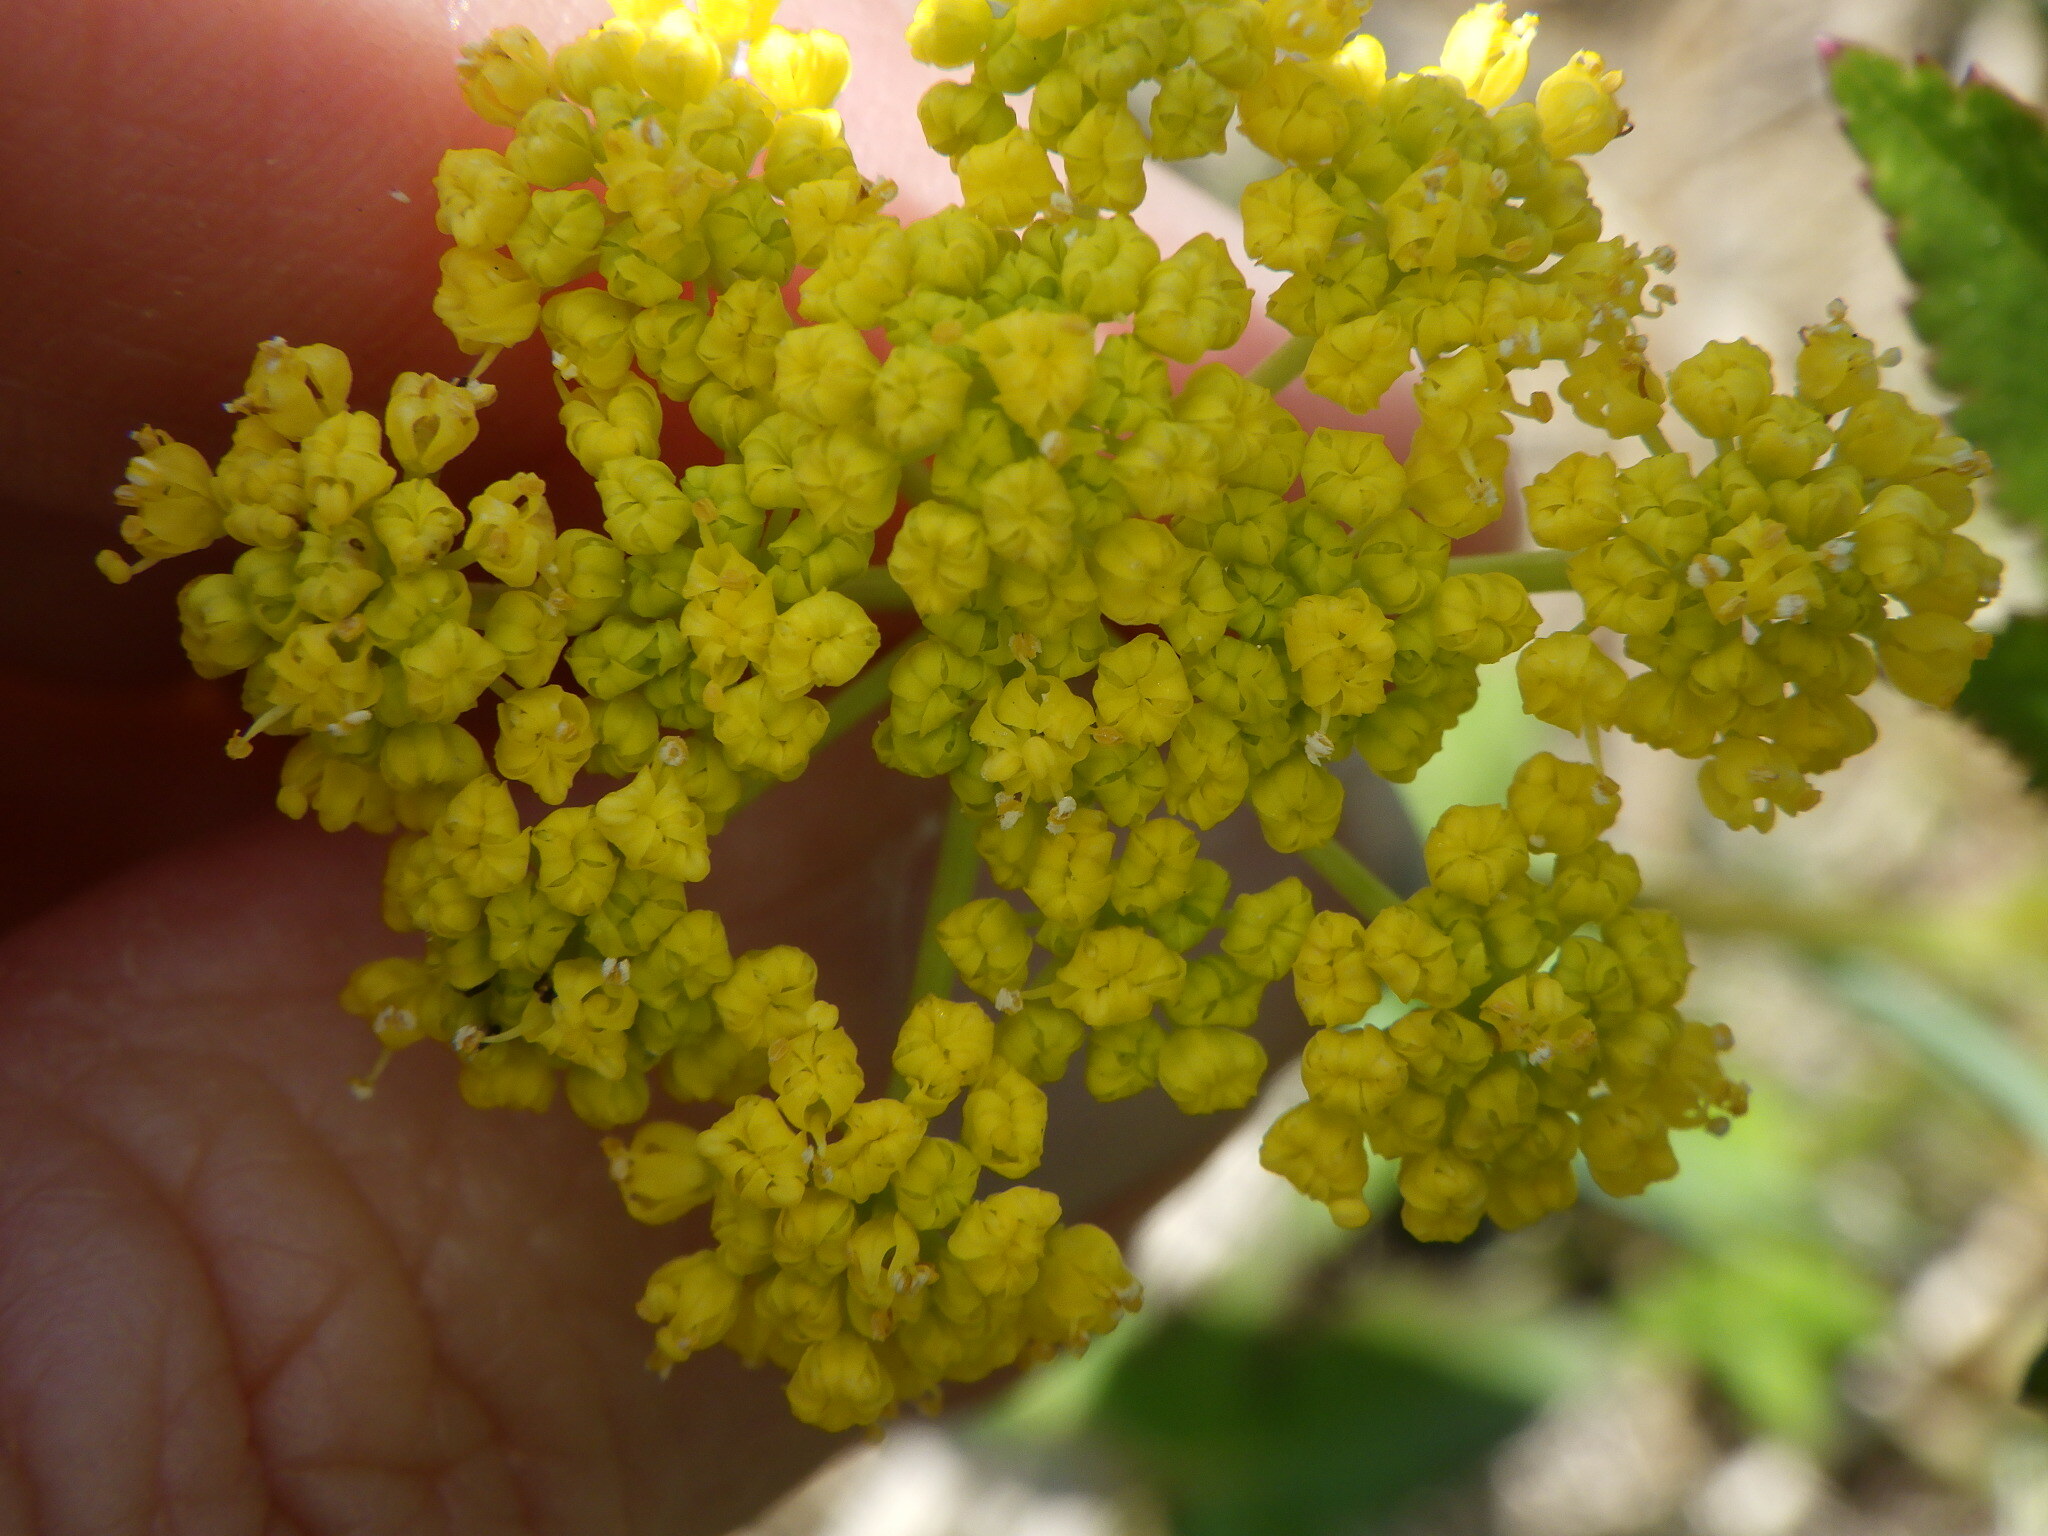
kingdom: Plantae
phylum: Tracheophyta
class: Magnoliopsida
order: Apiales
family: Apiaceae
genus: Zizia
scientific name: Zizia aurea
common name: Golden alexanders
